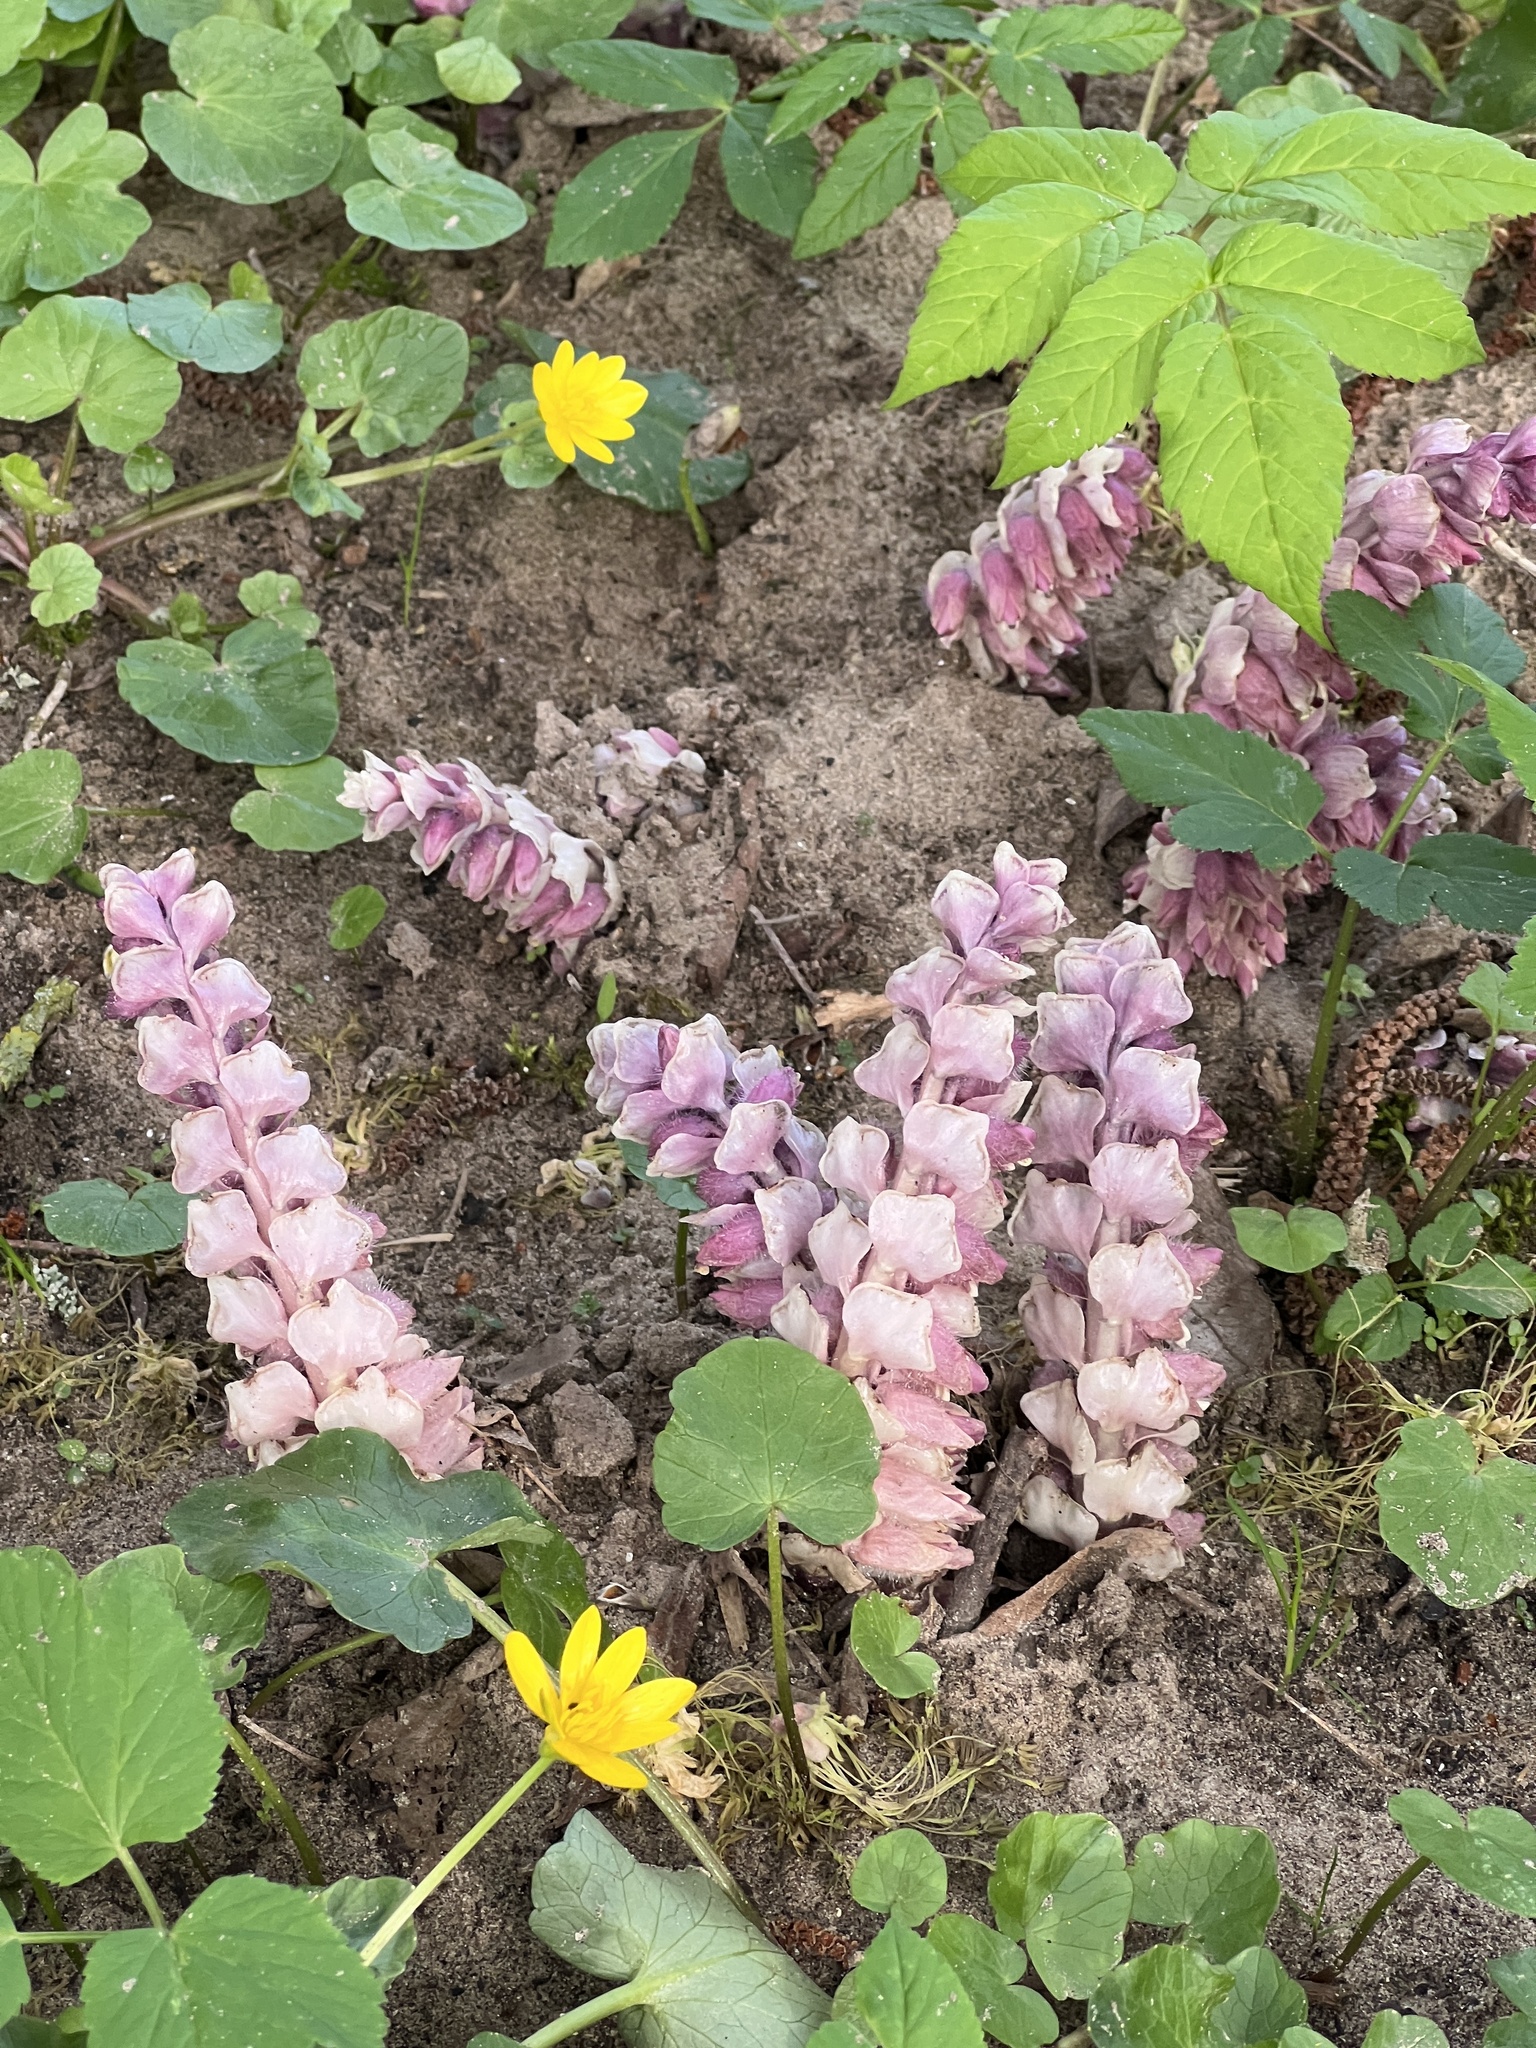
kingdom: Plantae
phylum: Tracheophyta
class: Magnoliopsida
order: Lamiales
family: Orobanchaceae
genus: Lathraea
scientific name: Lathraea squamaria
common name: Toothwort
